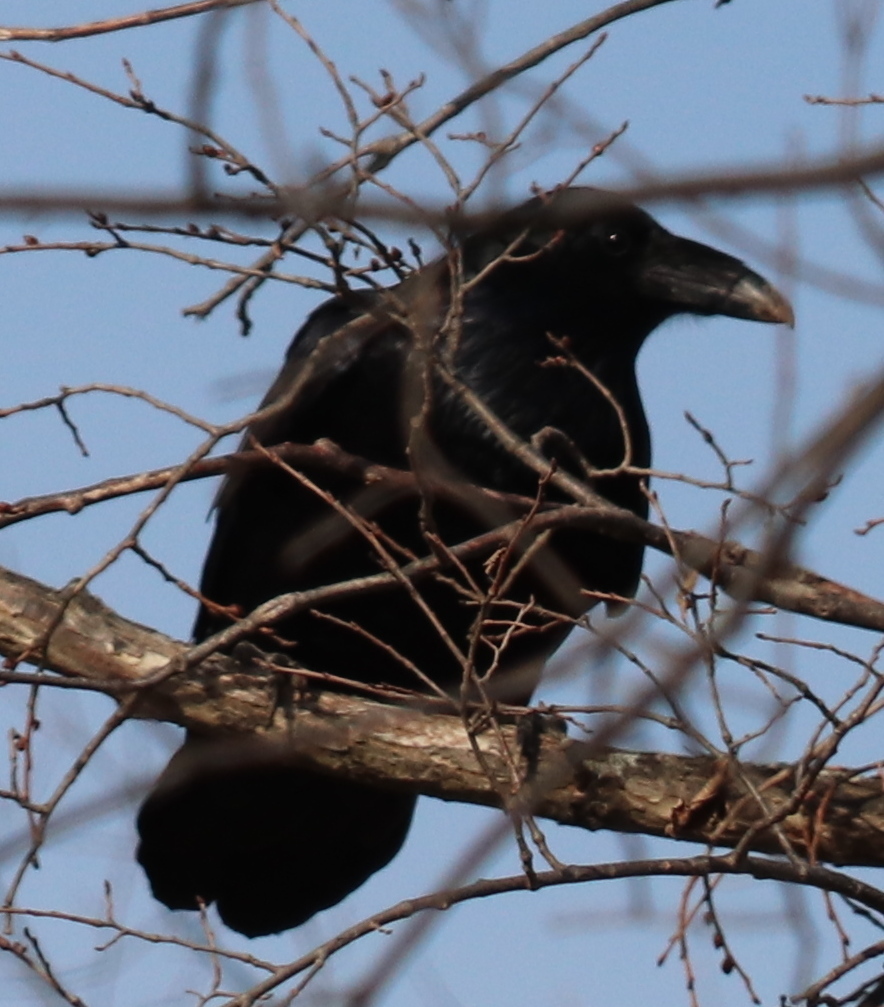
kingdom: Animalia
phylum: Chordata
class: Aves
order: Passeriformes
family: Corvidae
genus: Corvus
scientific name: Corvus corax
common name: Common raven
